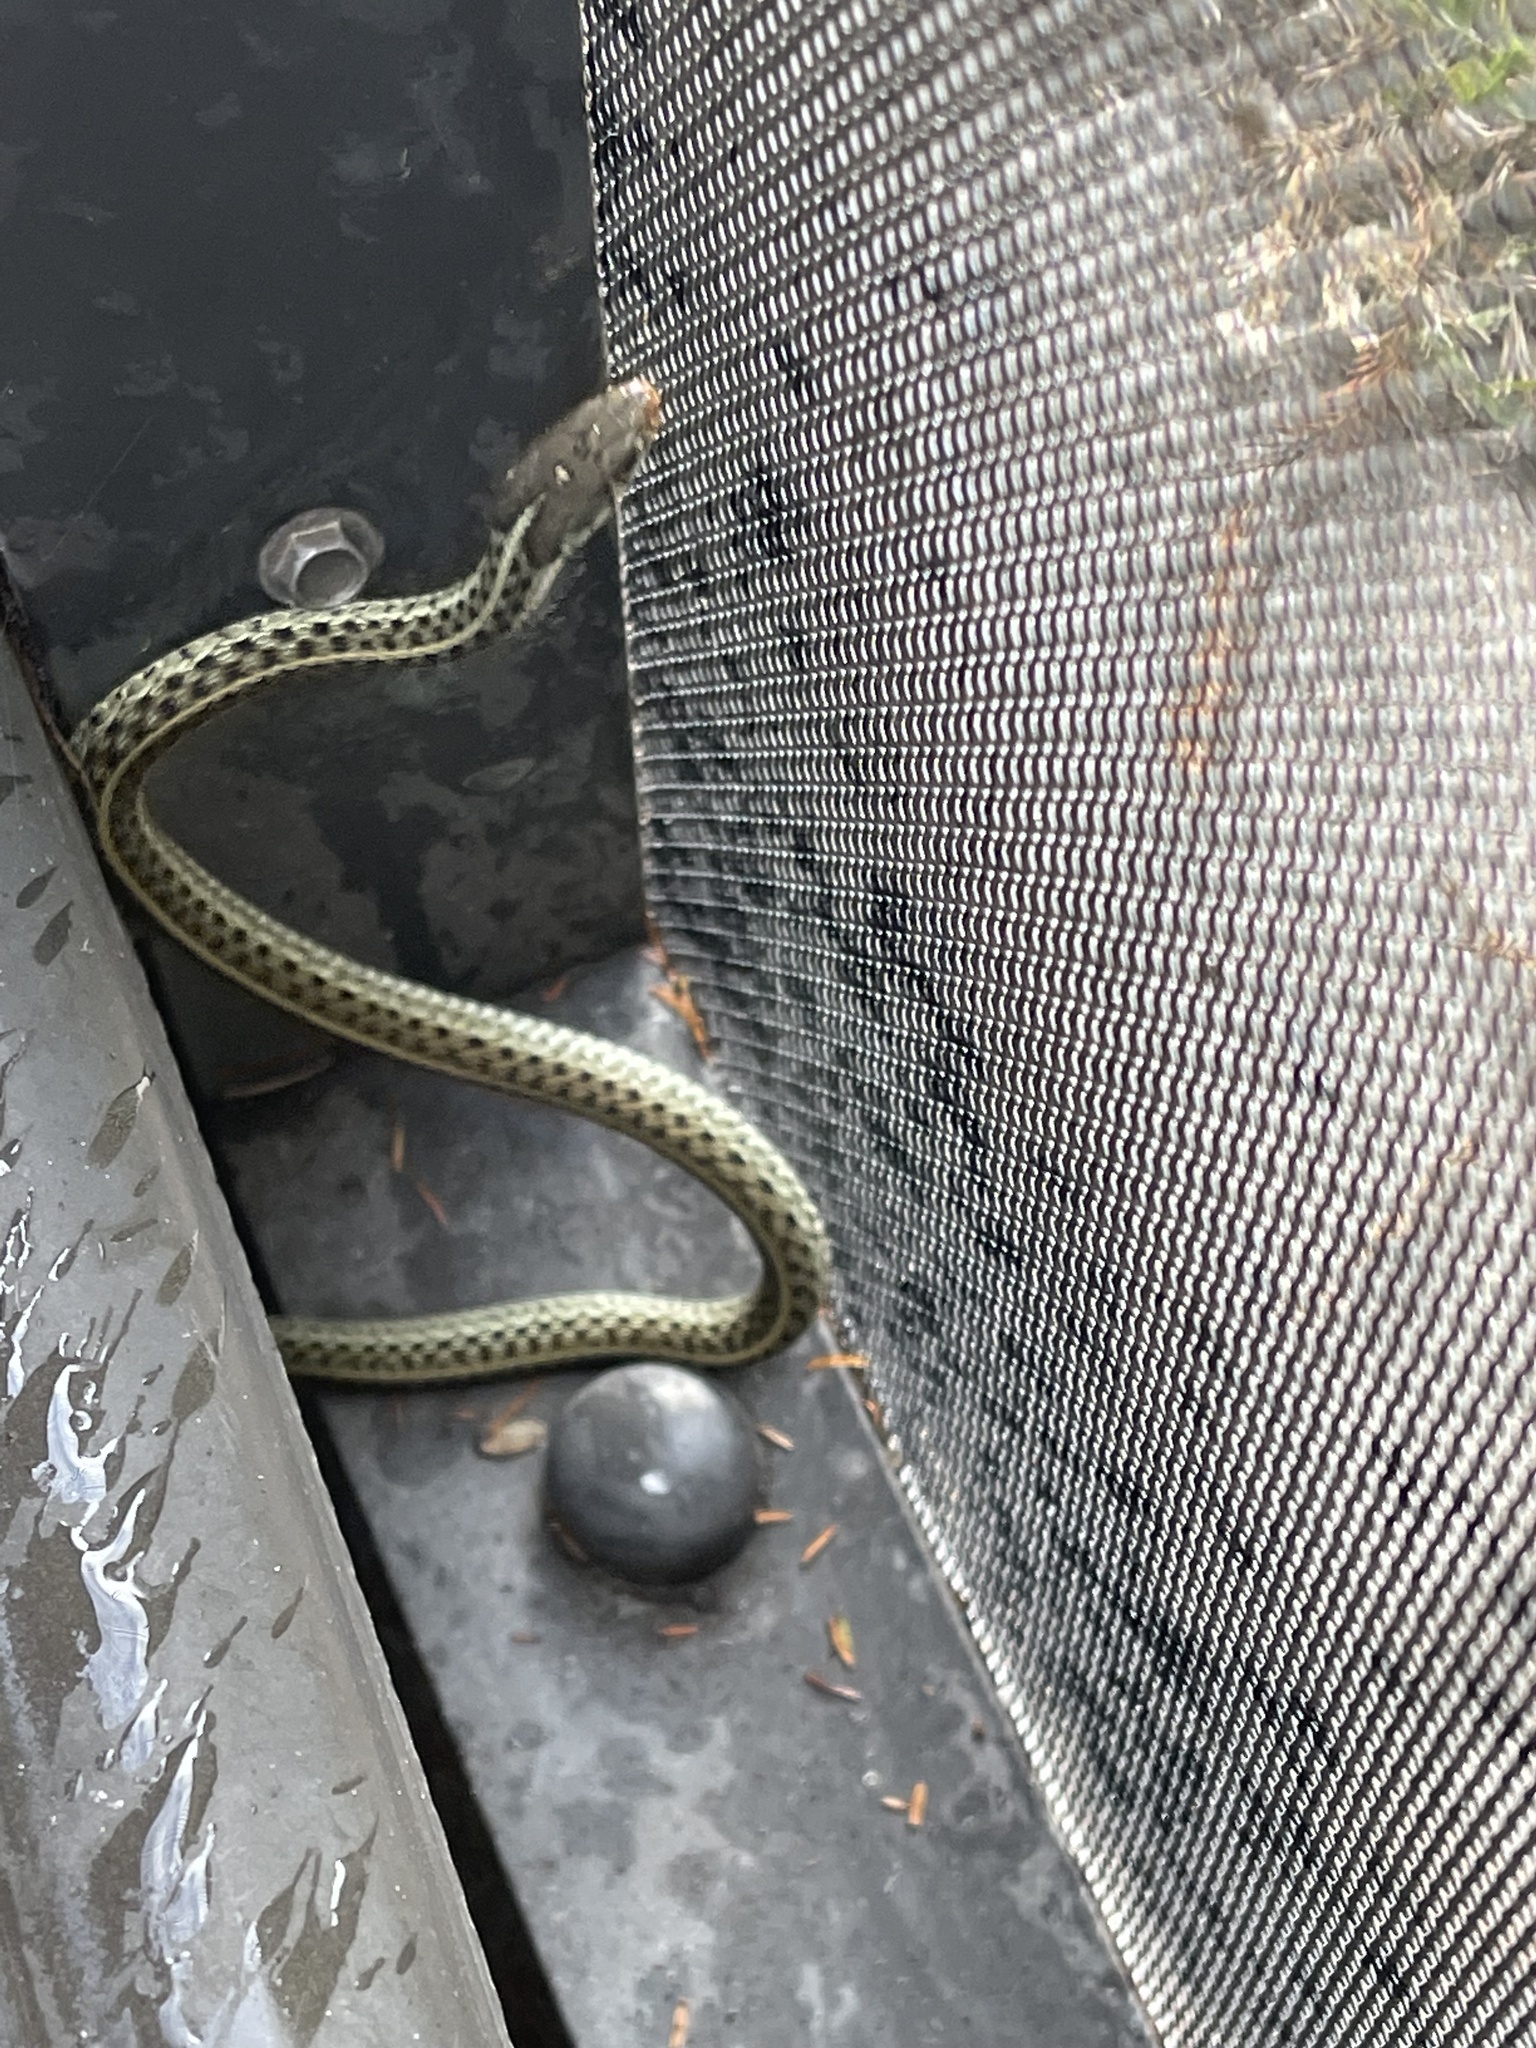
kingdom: Animalia
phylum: Chordata
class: Squamata
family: Colubridae
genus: Thamnophis
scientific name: Thamnophis sirtalis
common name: Common garter snake
